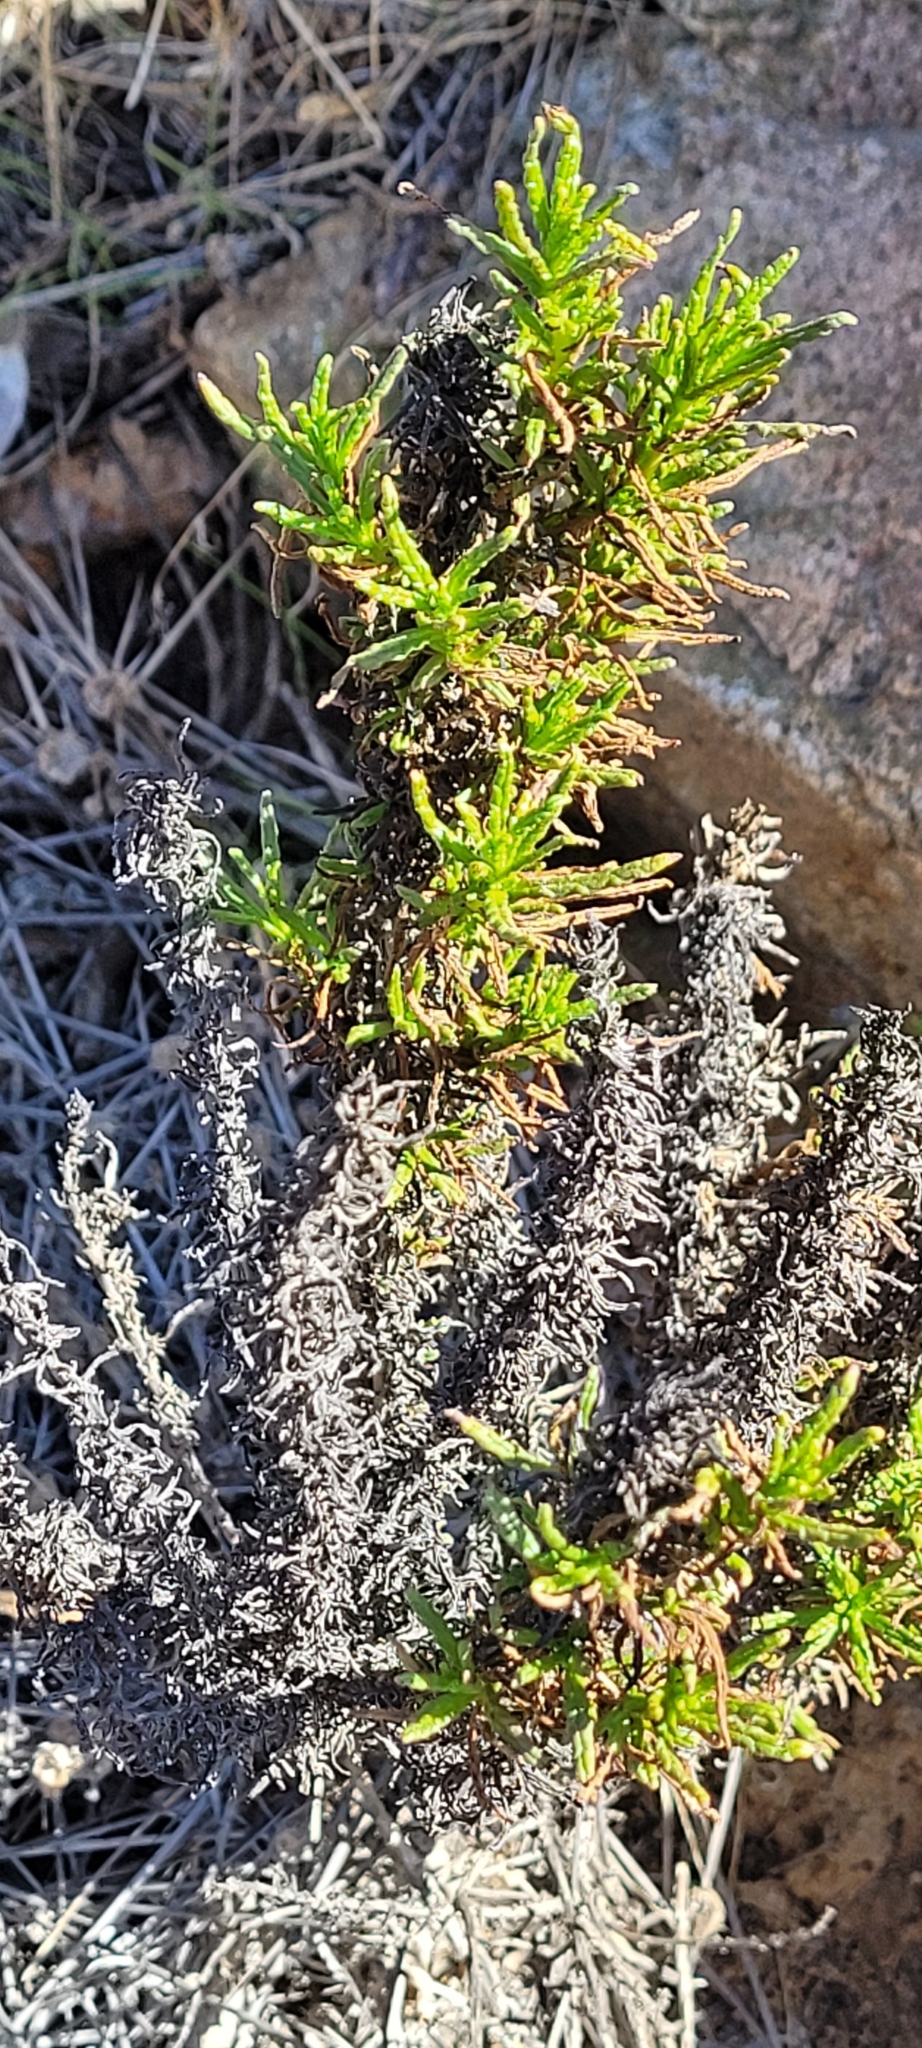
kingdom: Plantae
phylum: Tracheophyta
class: Magnoliopsida
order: Boraginales
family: Heliotropiaceae
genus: Heliotropium
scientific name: Heliotropium sinuatum
